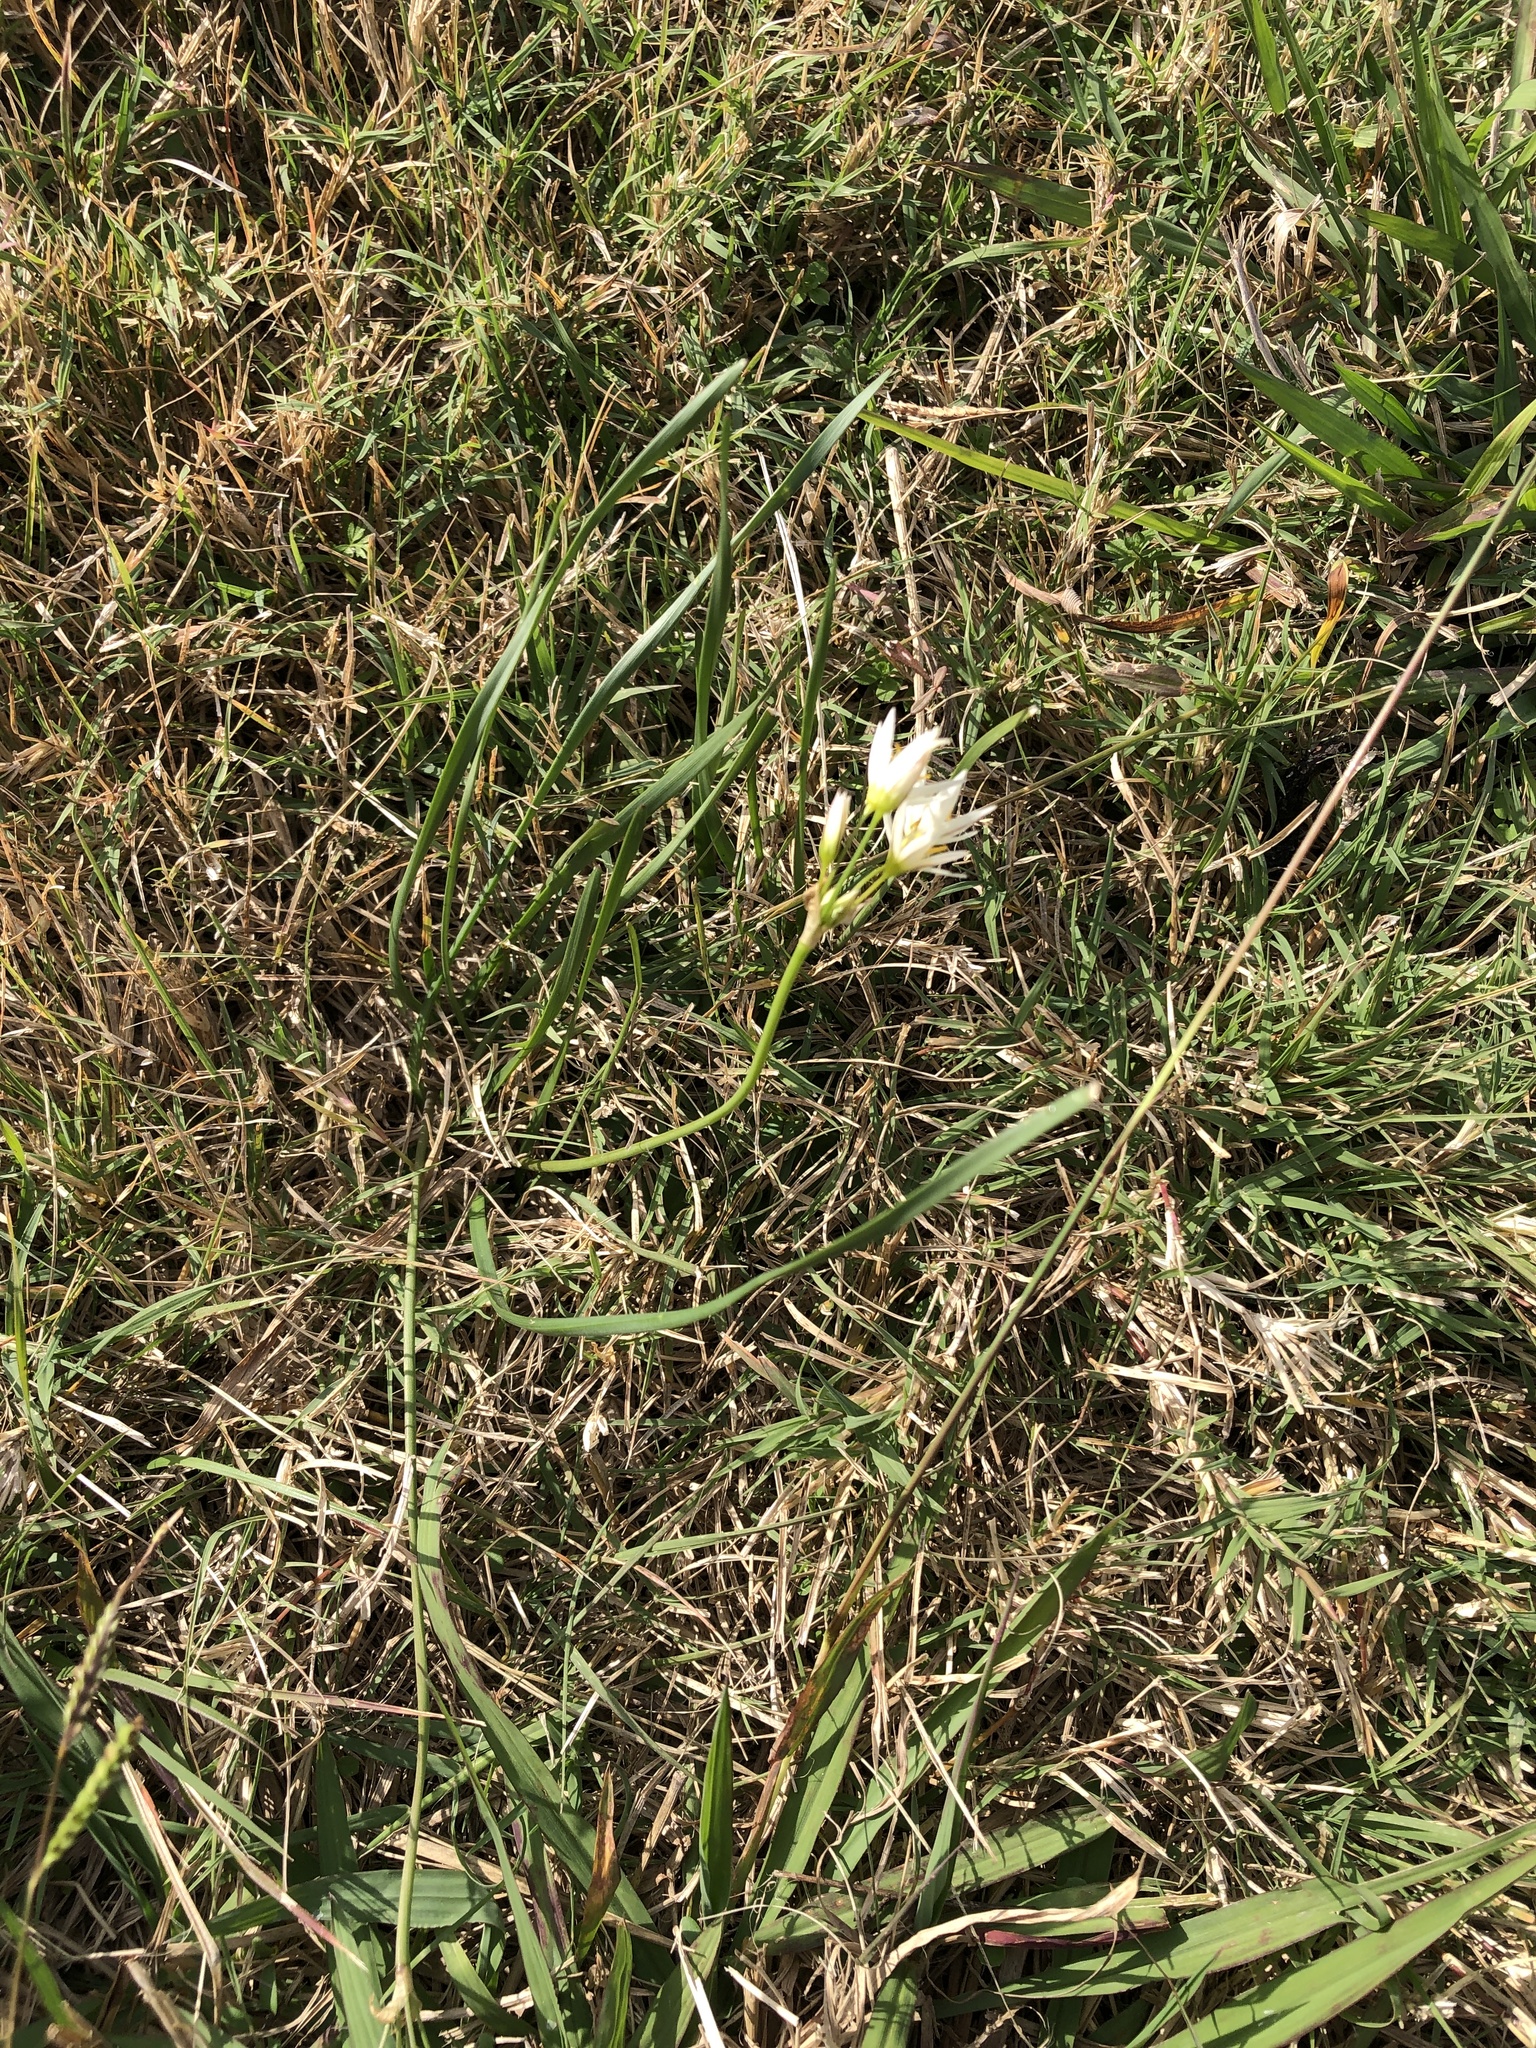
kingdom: Plantae
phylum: Tracheophyta
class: Liliopsida
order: Asparagales
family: Amaryllidaceae
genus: Nothoscordum
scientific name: Nothoscordum bivalve
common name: Crow-poison
